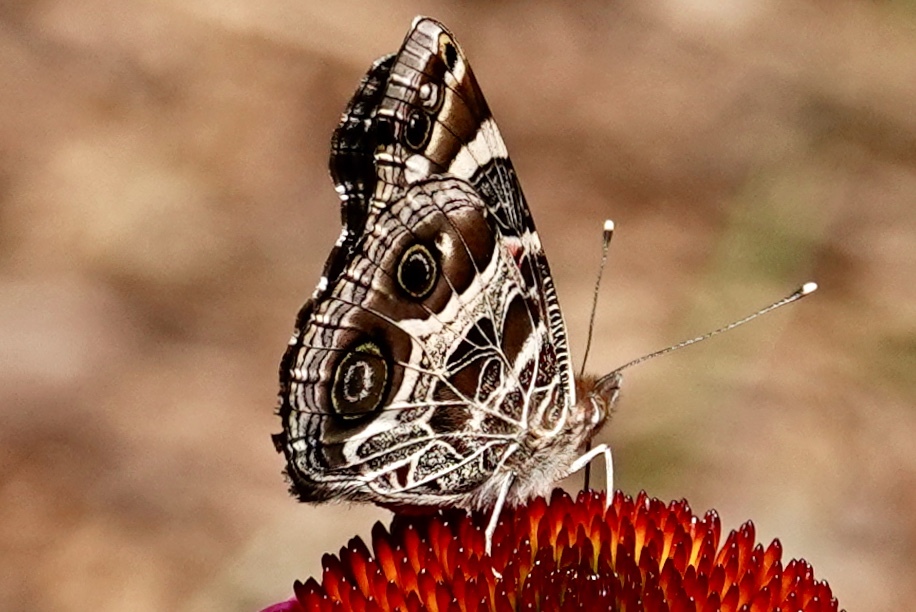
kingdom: Animalia
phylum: Arthropoda
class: Insecta
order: Lepidoptera
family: Nymphalidae
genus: Vanessa
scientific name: Vanessa virginiensis
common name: American lady
